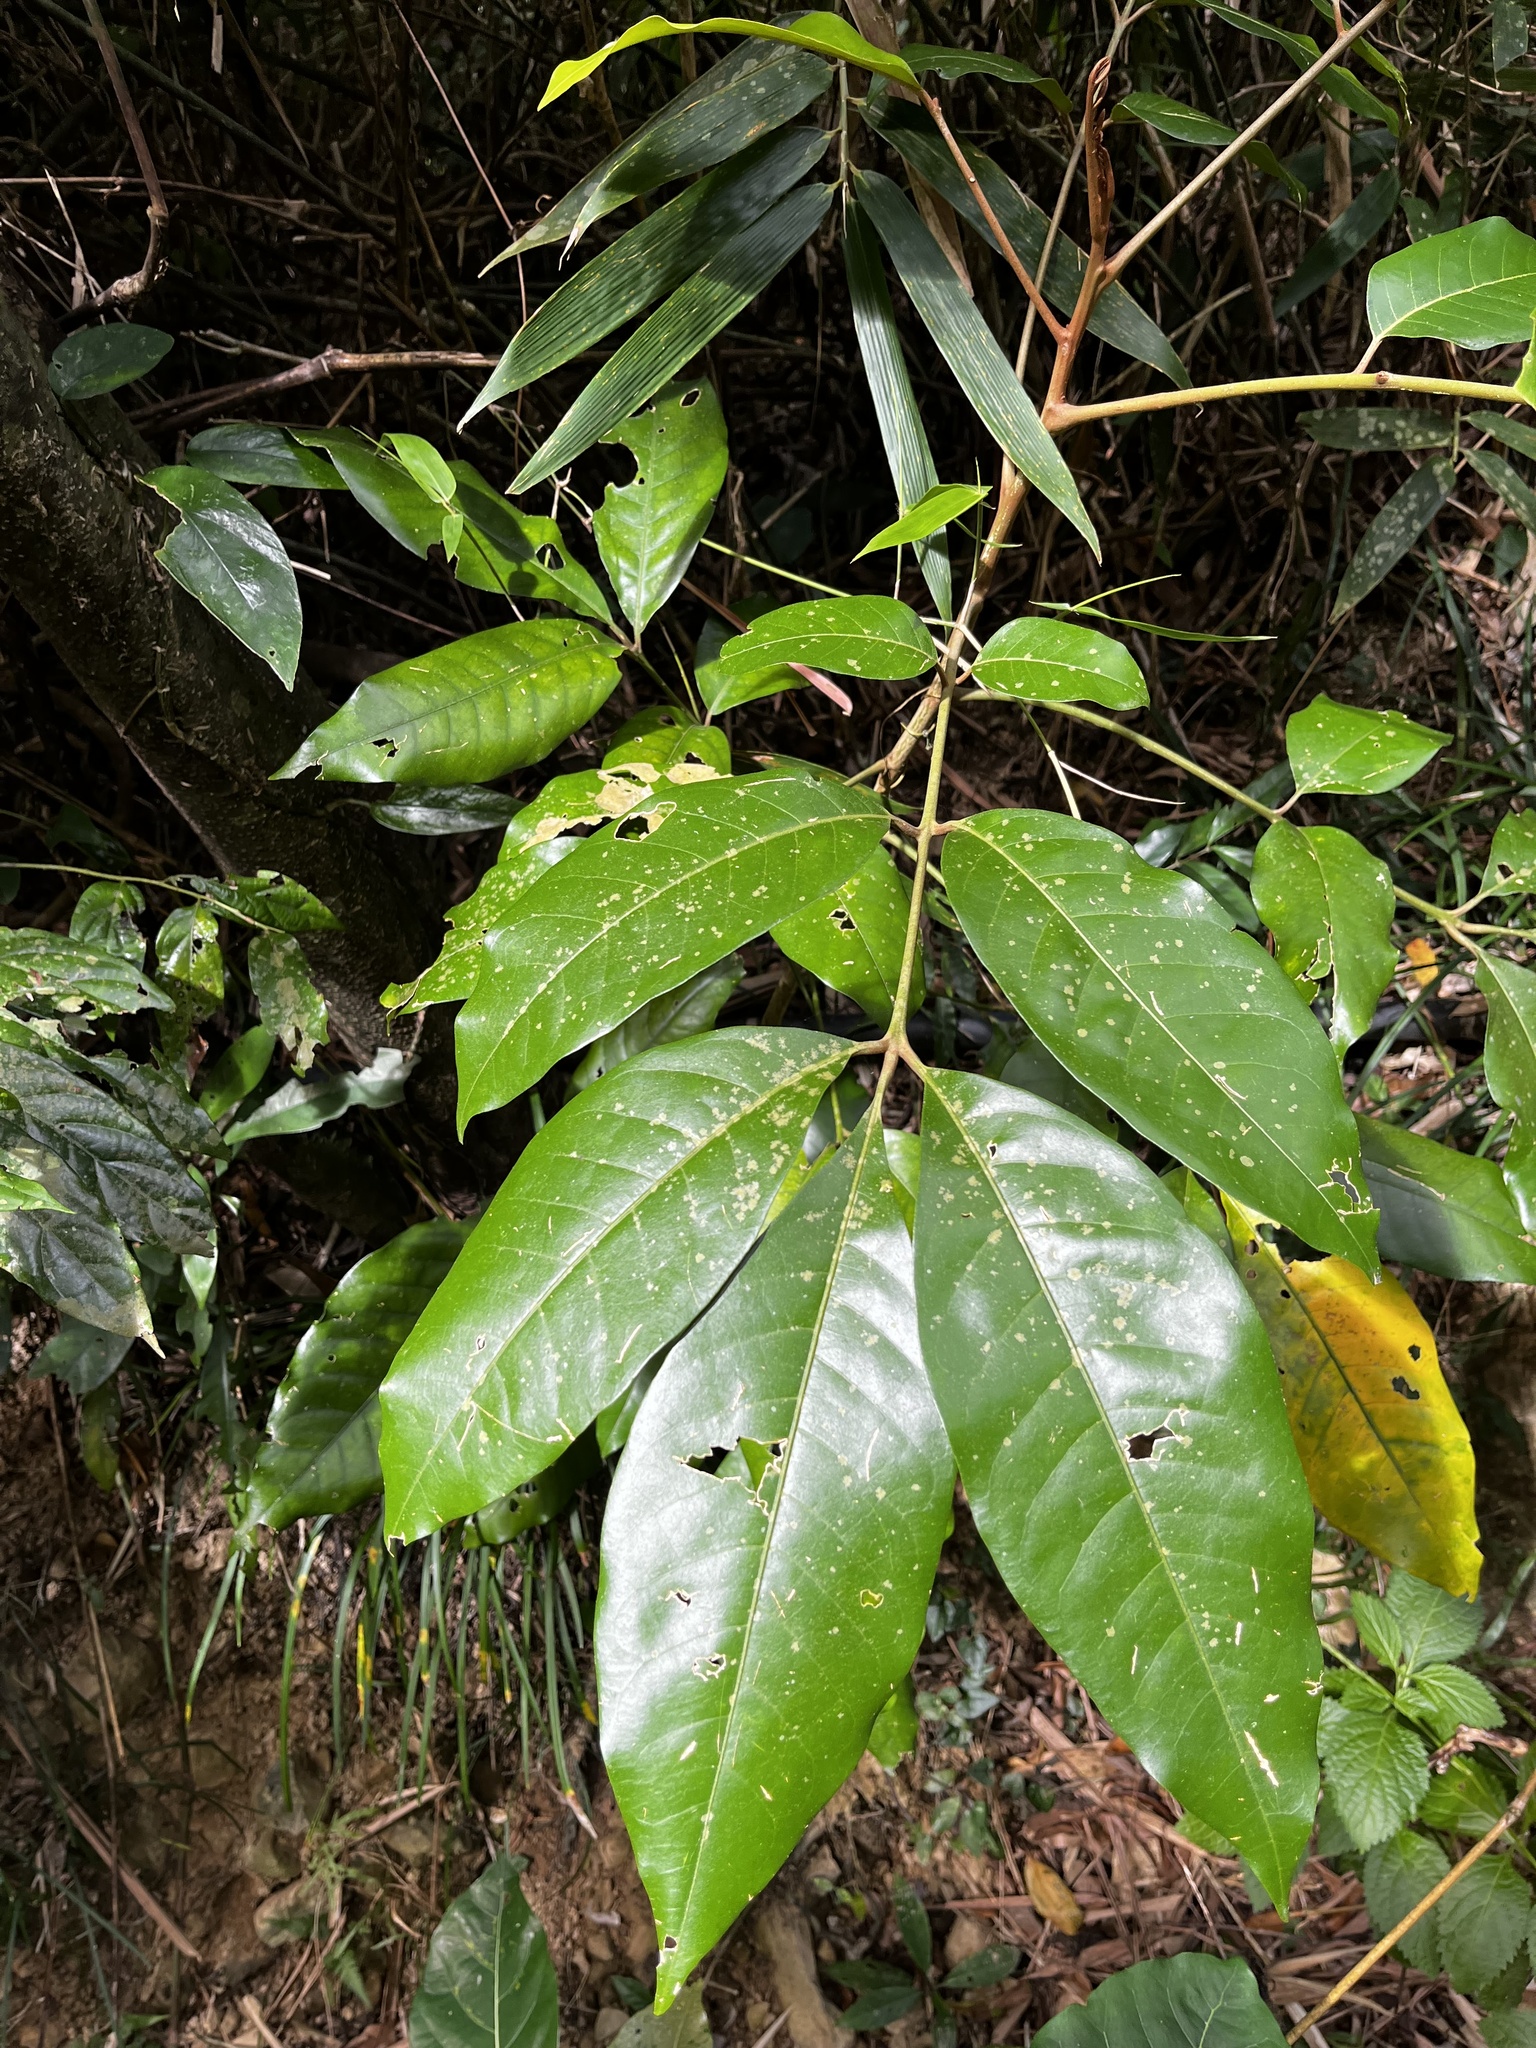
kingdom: Plantae
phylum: Tracheophyta
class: Magnoliopsida
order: Sapindales
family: Meliaceae
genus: Aglaia
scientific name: Aglaia rimosa
